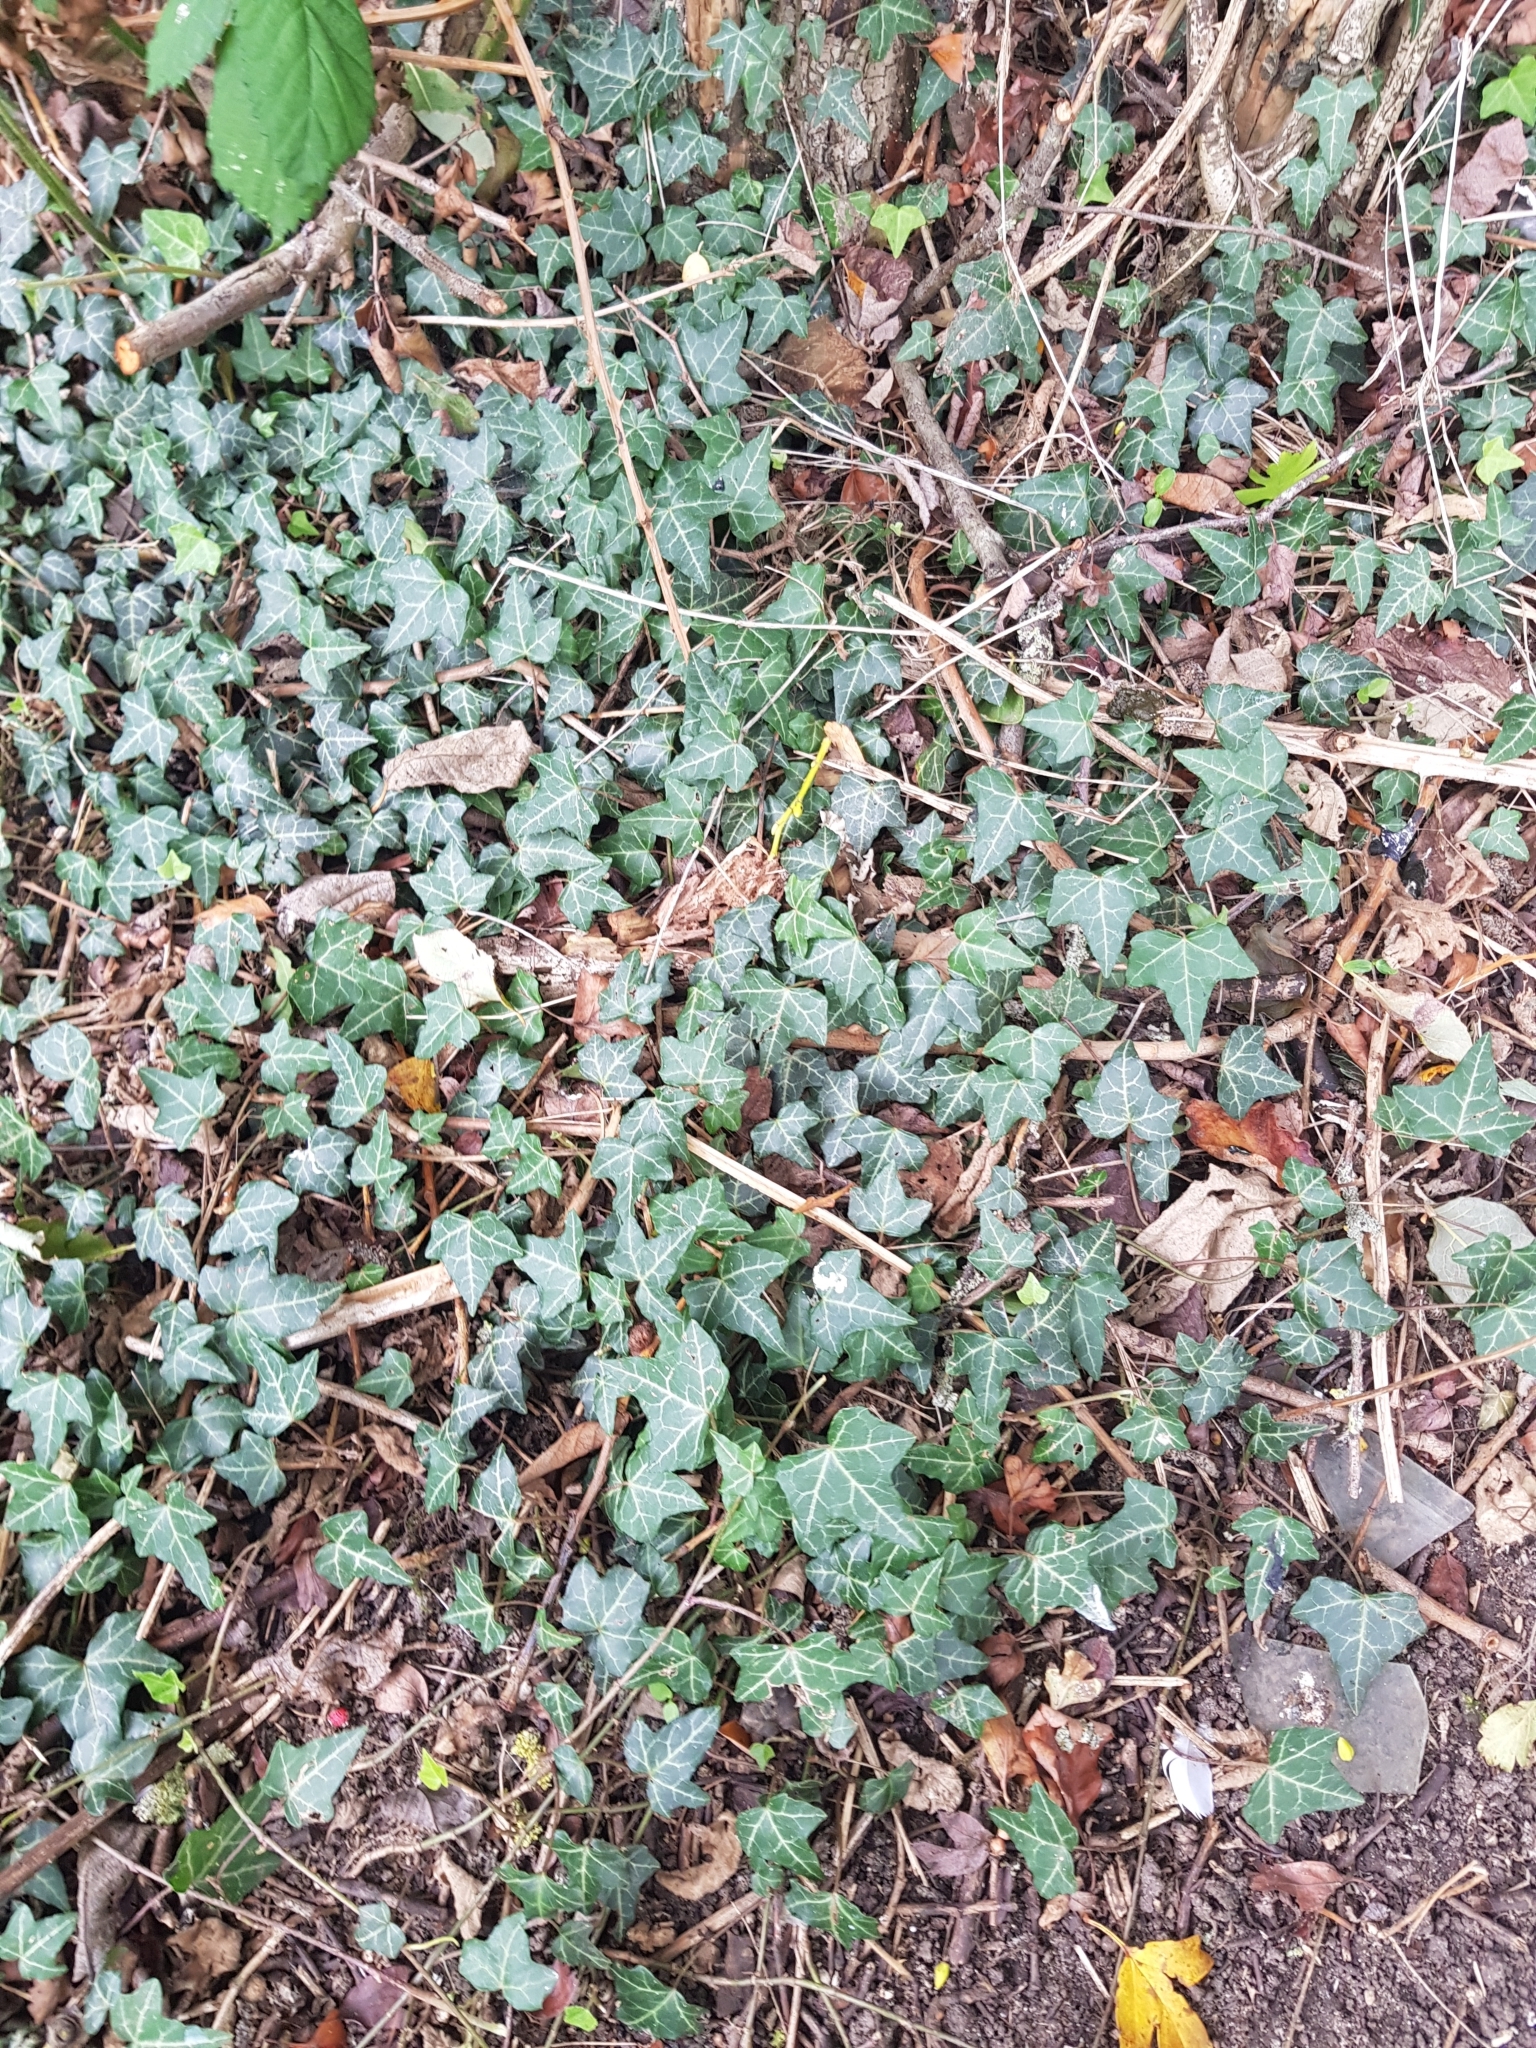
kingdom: Plantae
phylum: Tracheophyta
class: Magnoliopsida
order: Apiales
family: Araliaceae
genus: Hedera
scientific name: Hedera helix
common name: Ivy
